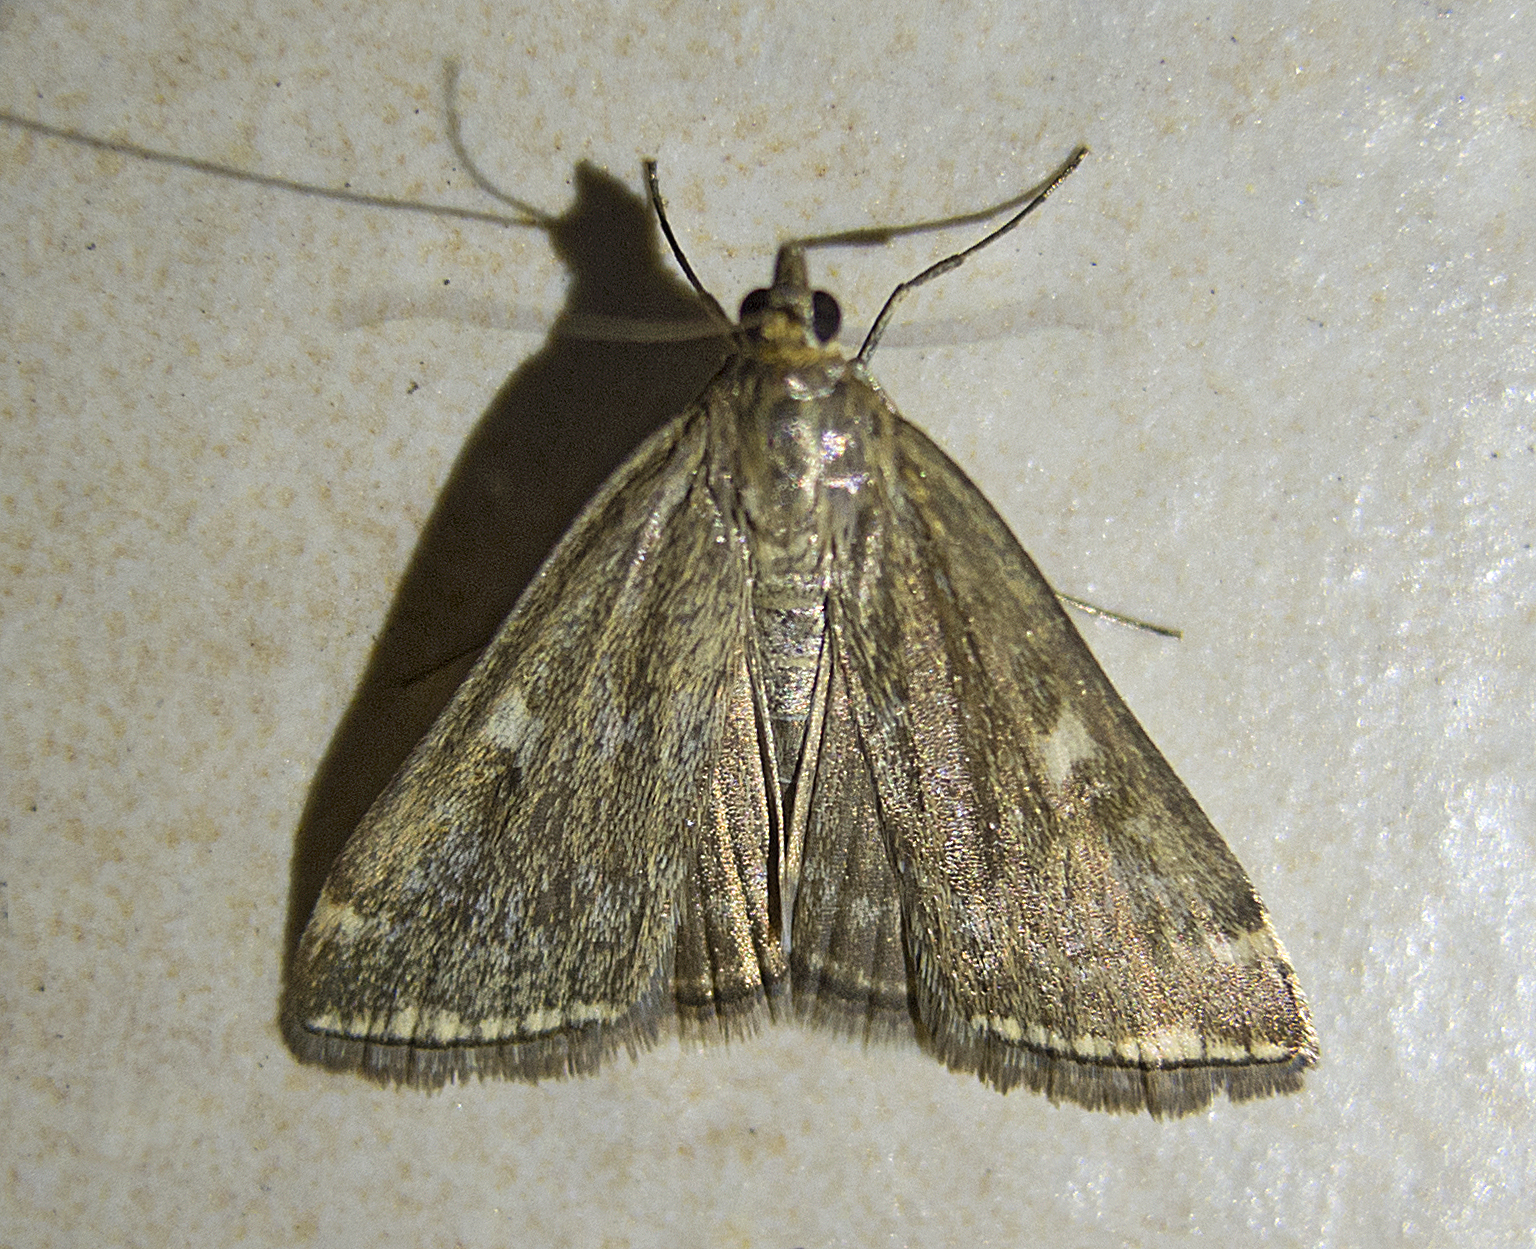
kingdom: Animalia
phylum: Arthropoda
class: Insecta
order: Lepidoptera
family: Crambidae
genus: Loxostege
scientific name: Loxostege sticticalis
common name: Crambid moth
